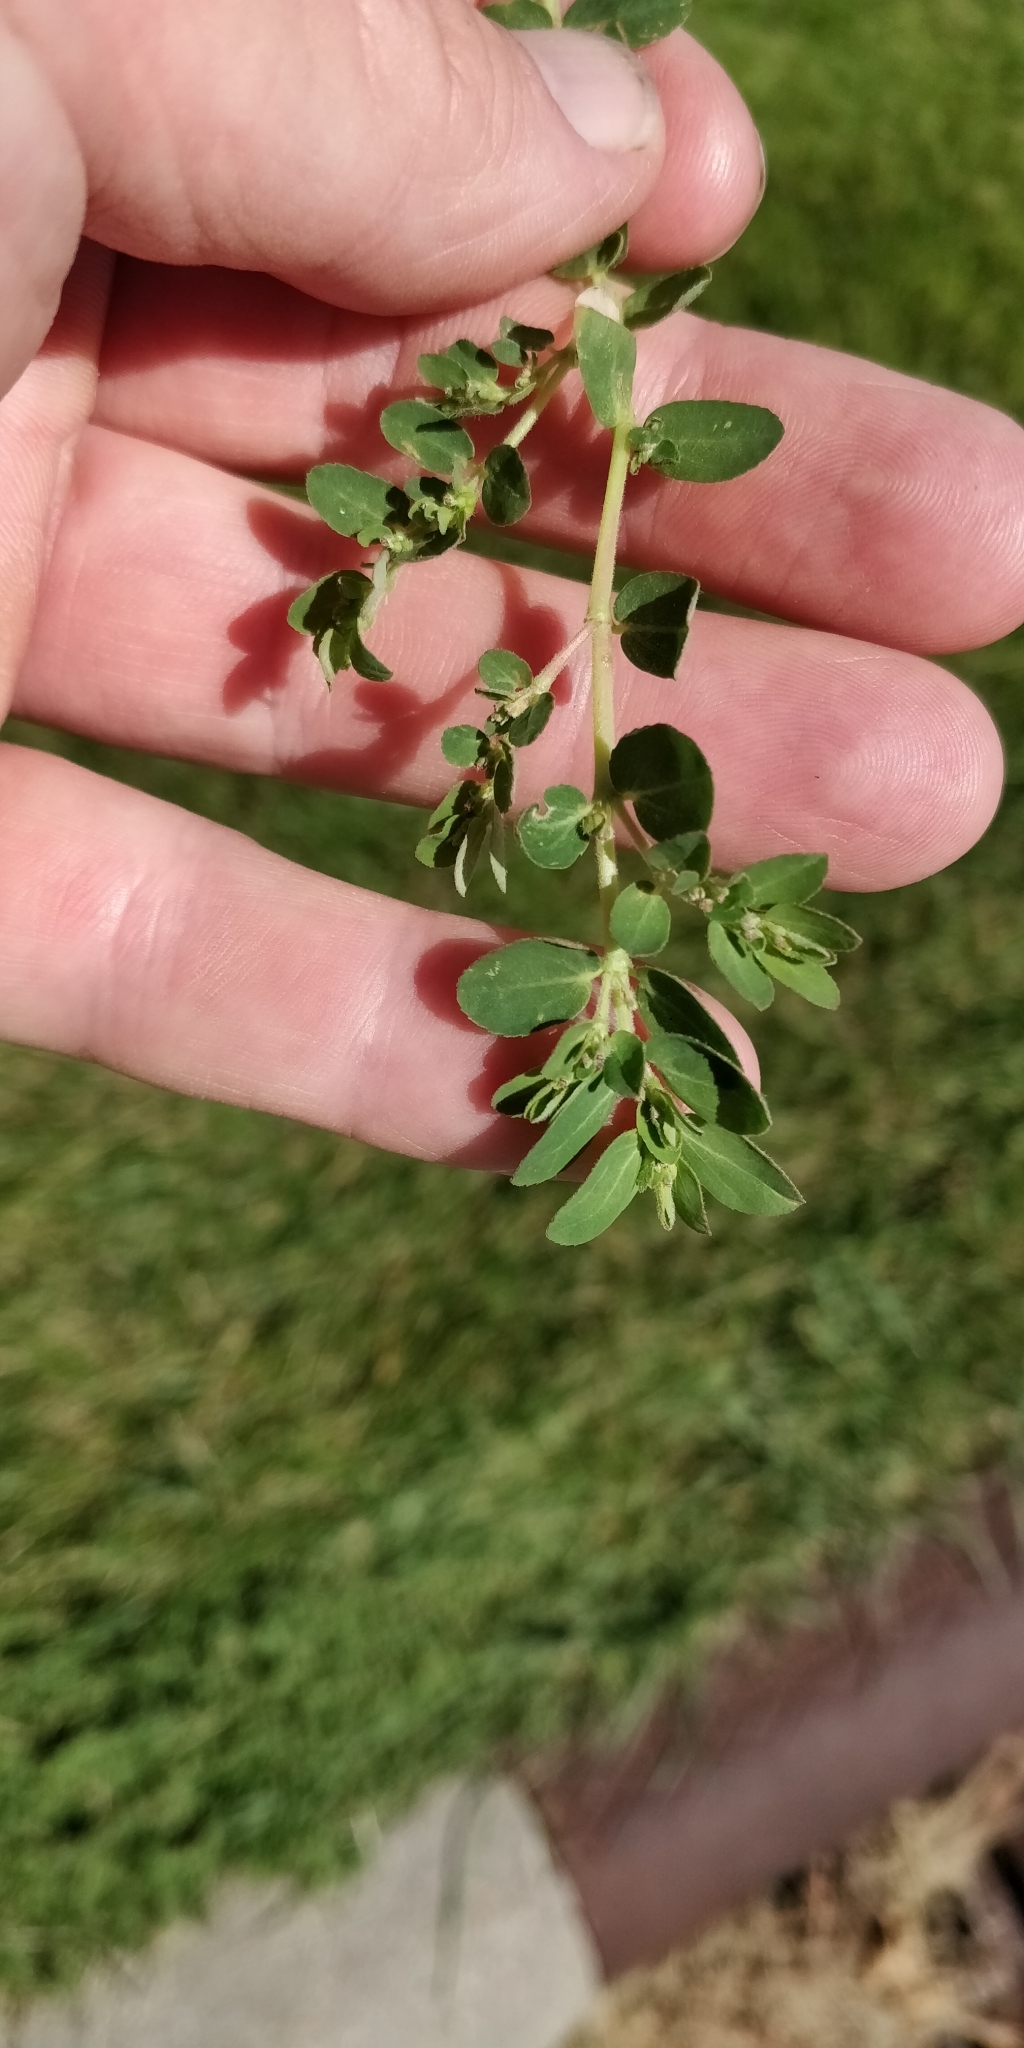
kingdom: Plantae
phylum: Tracheophyta
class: Magnoliopsida
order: Malpighiales
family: Euphorbiaceae
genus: Euphorbia
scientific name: Euphorbia prostrata
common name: Prostrate sandmat
